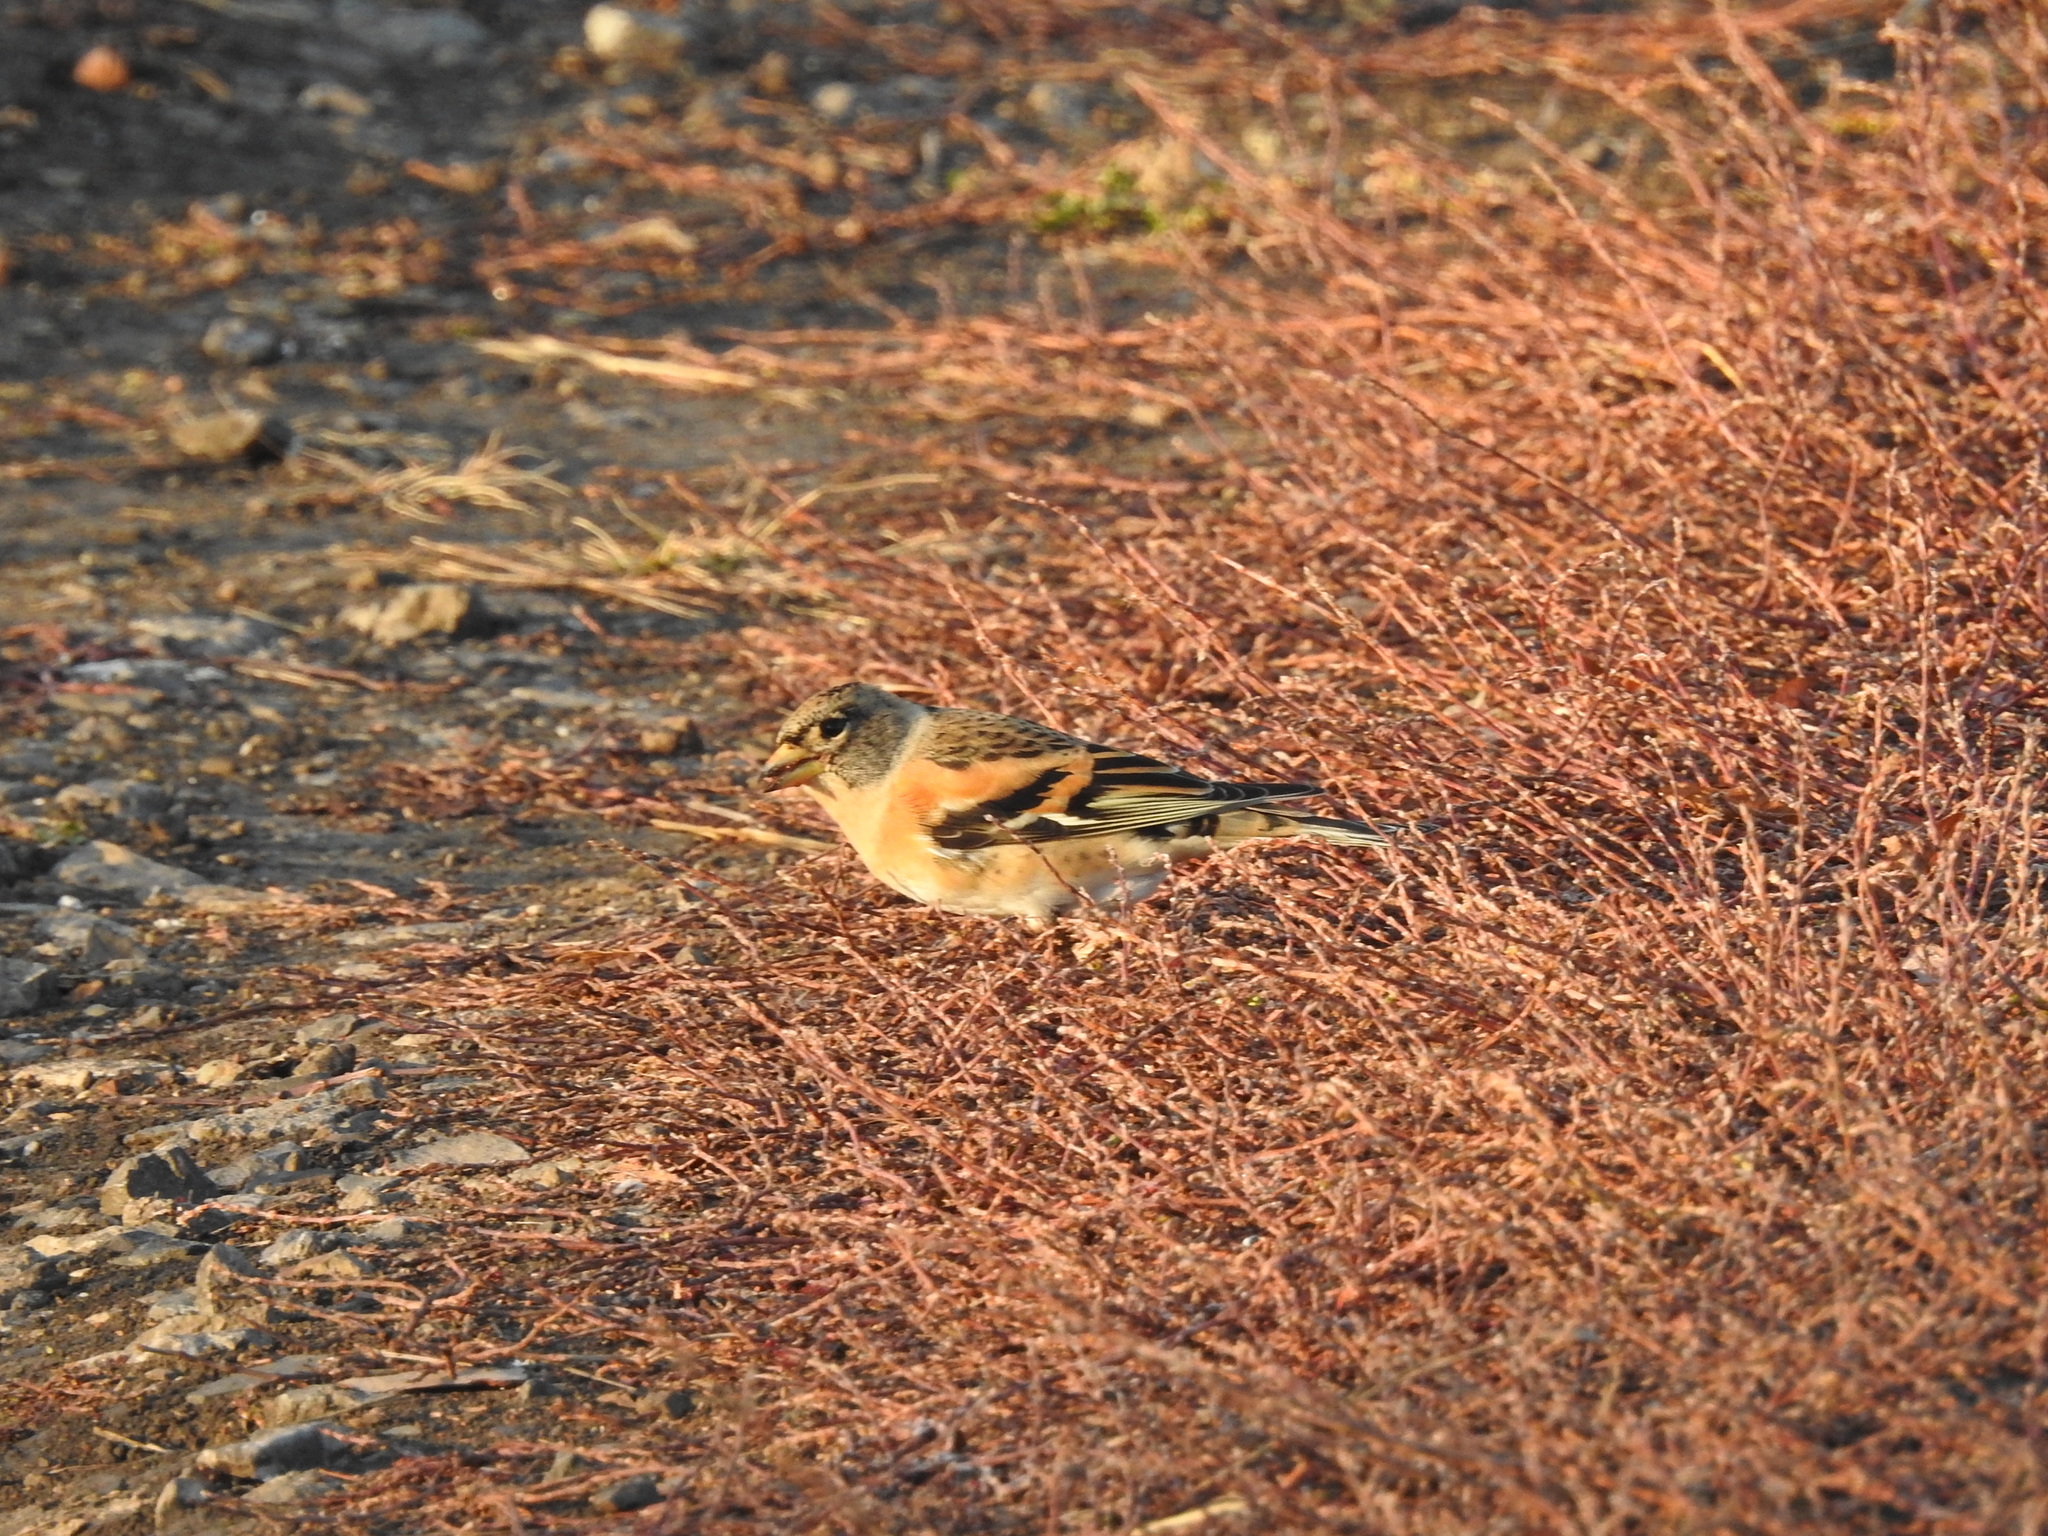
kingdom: Animalia
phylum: Chordata
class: Aves
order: Passeriformes
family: Fringillidae
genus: Fringilla
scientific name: Fringilla montifringilla
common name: Brambling
